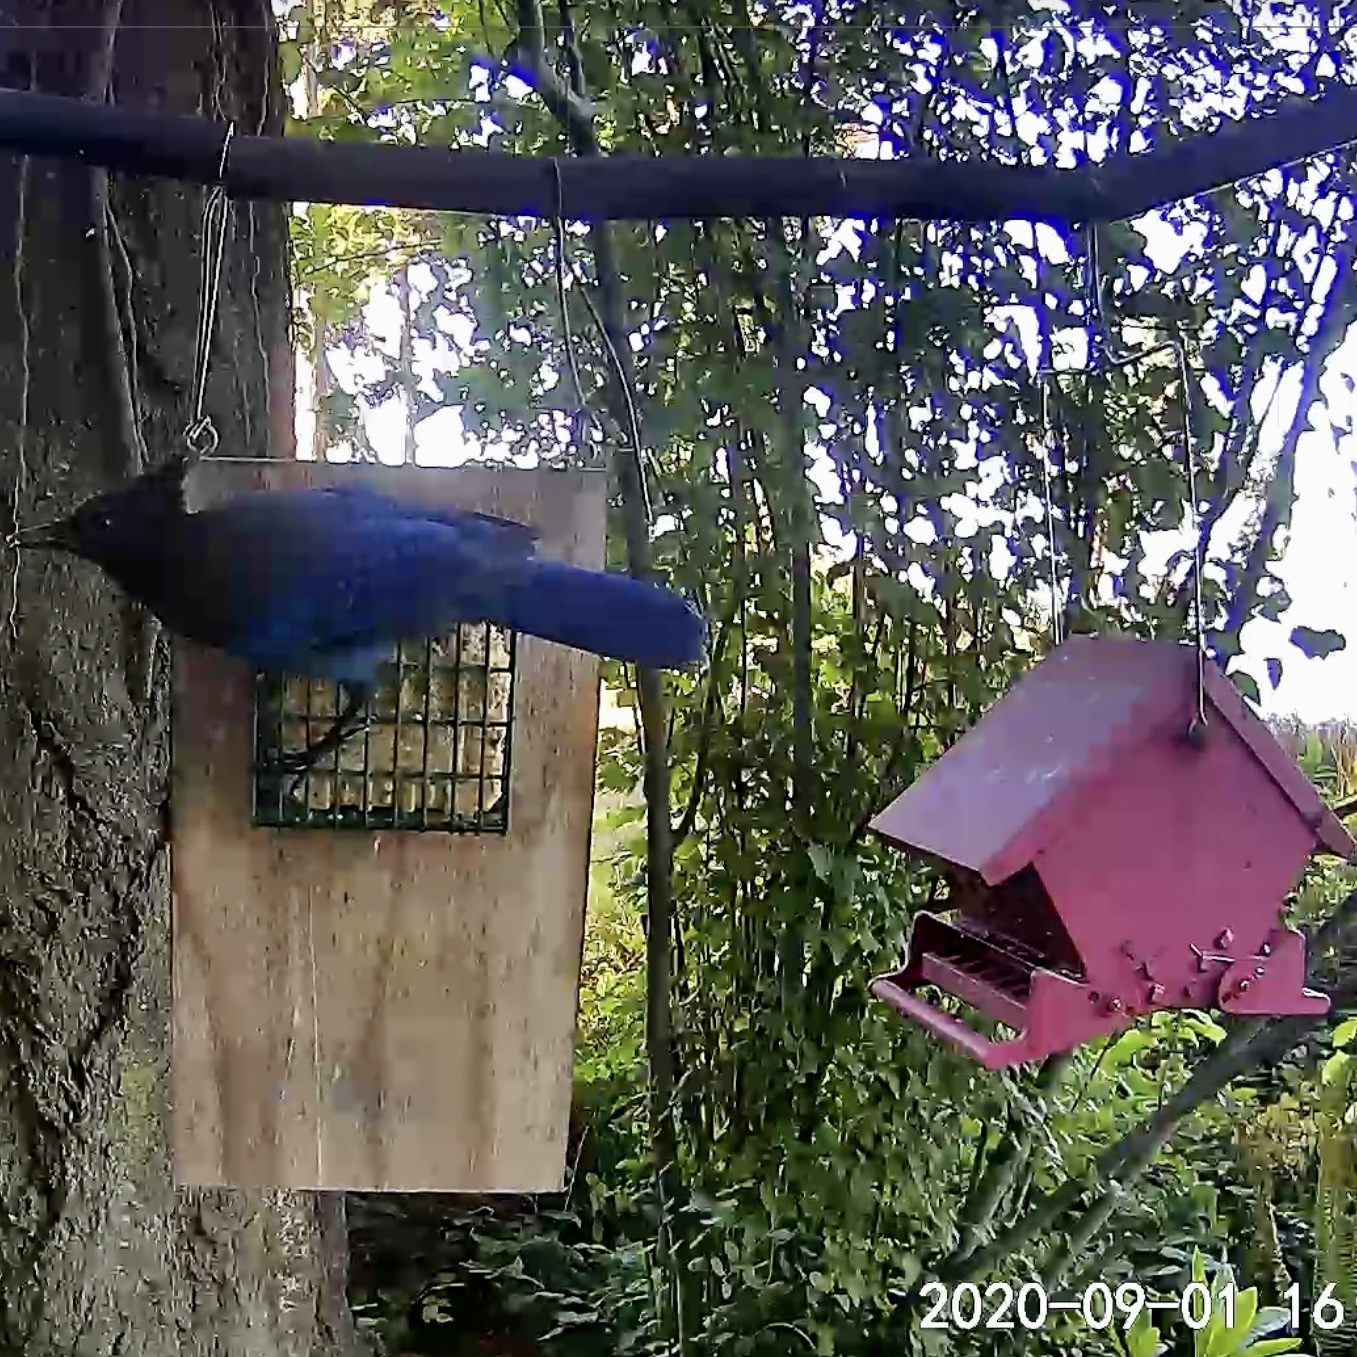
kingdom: Animalia
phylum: Chordata
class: Aves
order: Passeriformes
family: Corvidae
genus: Cyanocitta
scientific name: Cyanocitta stelleri
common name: Steller's jay
